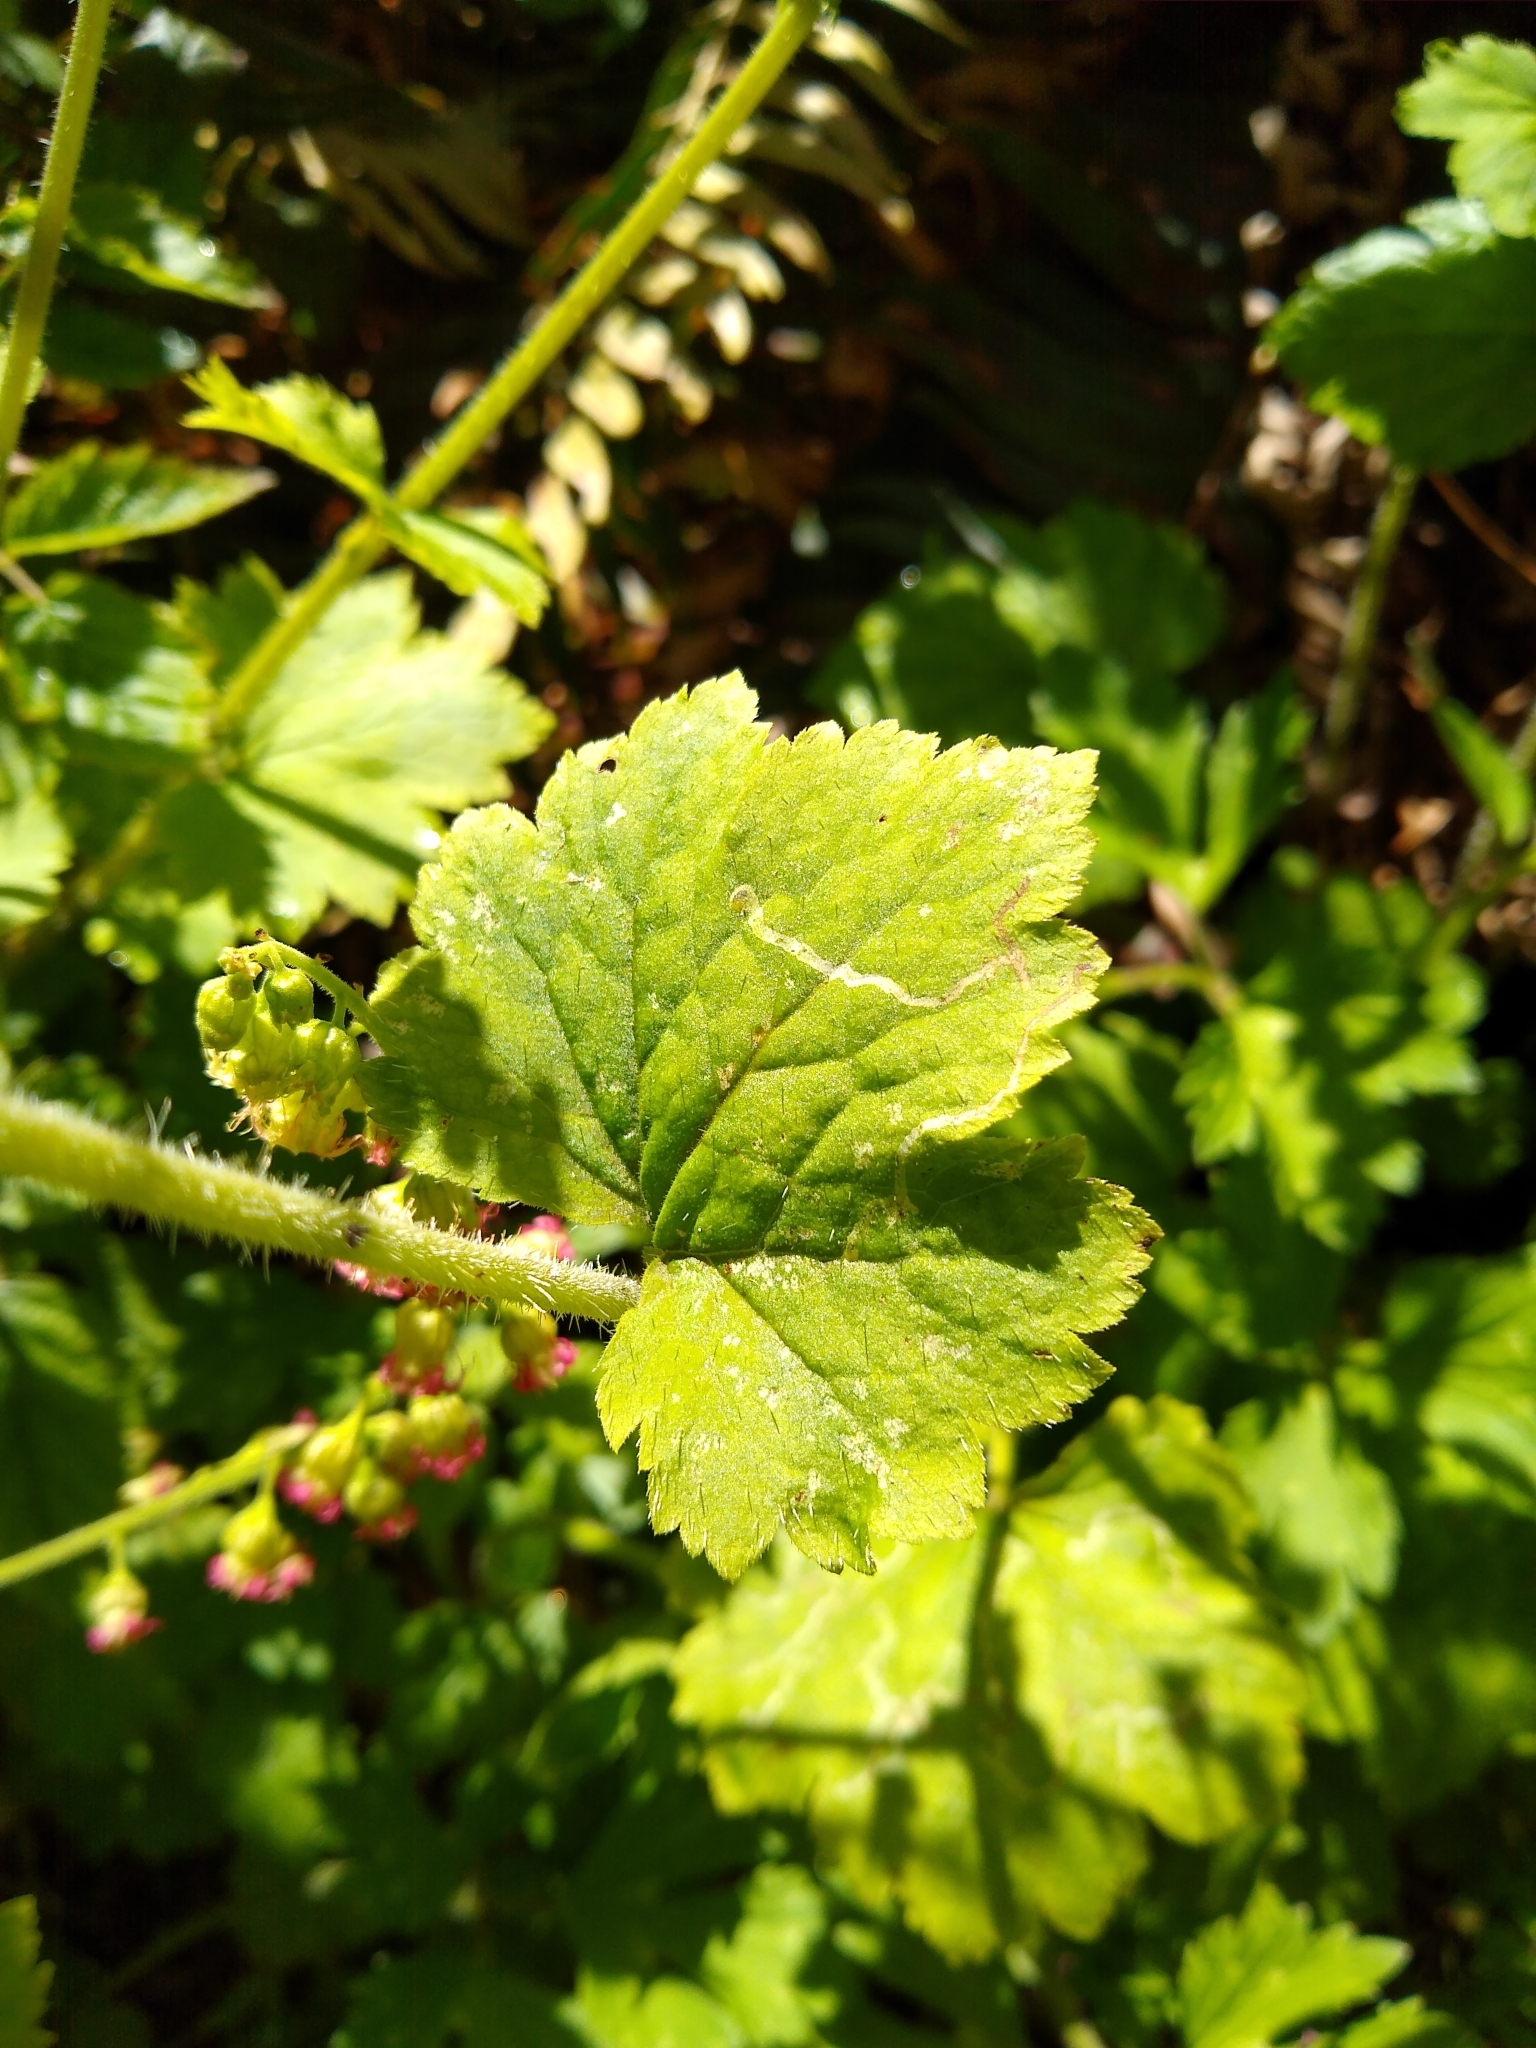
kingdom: Plantae
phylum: Tracheophyta
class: Magnoliopsida
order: Saxifragales
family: Saxifragaceae
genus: Tellima
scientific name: Tellima grandiflora
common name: Fringecups
